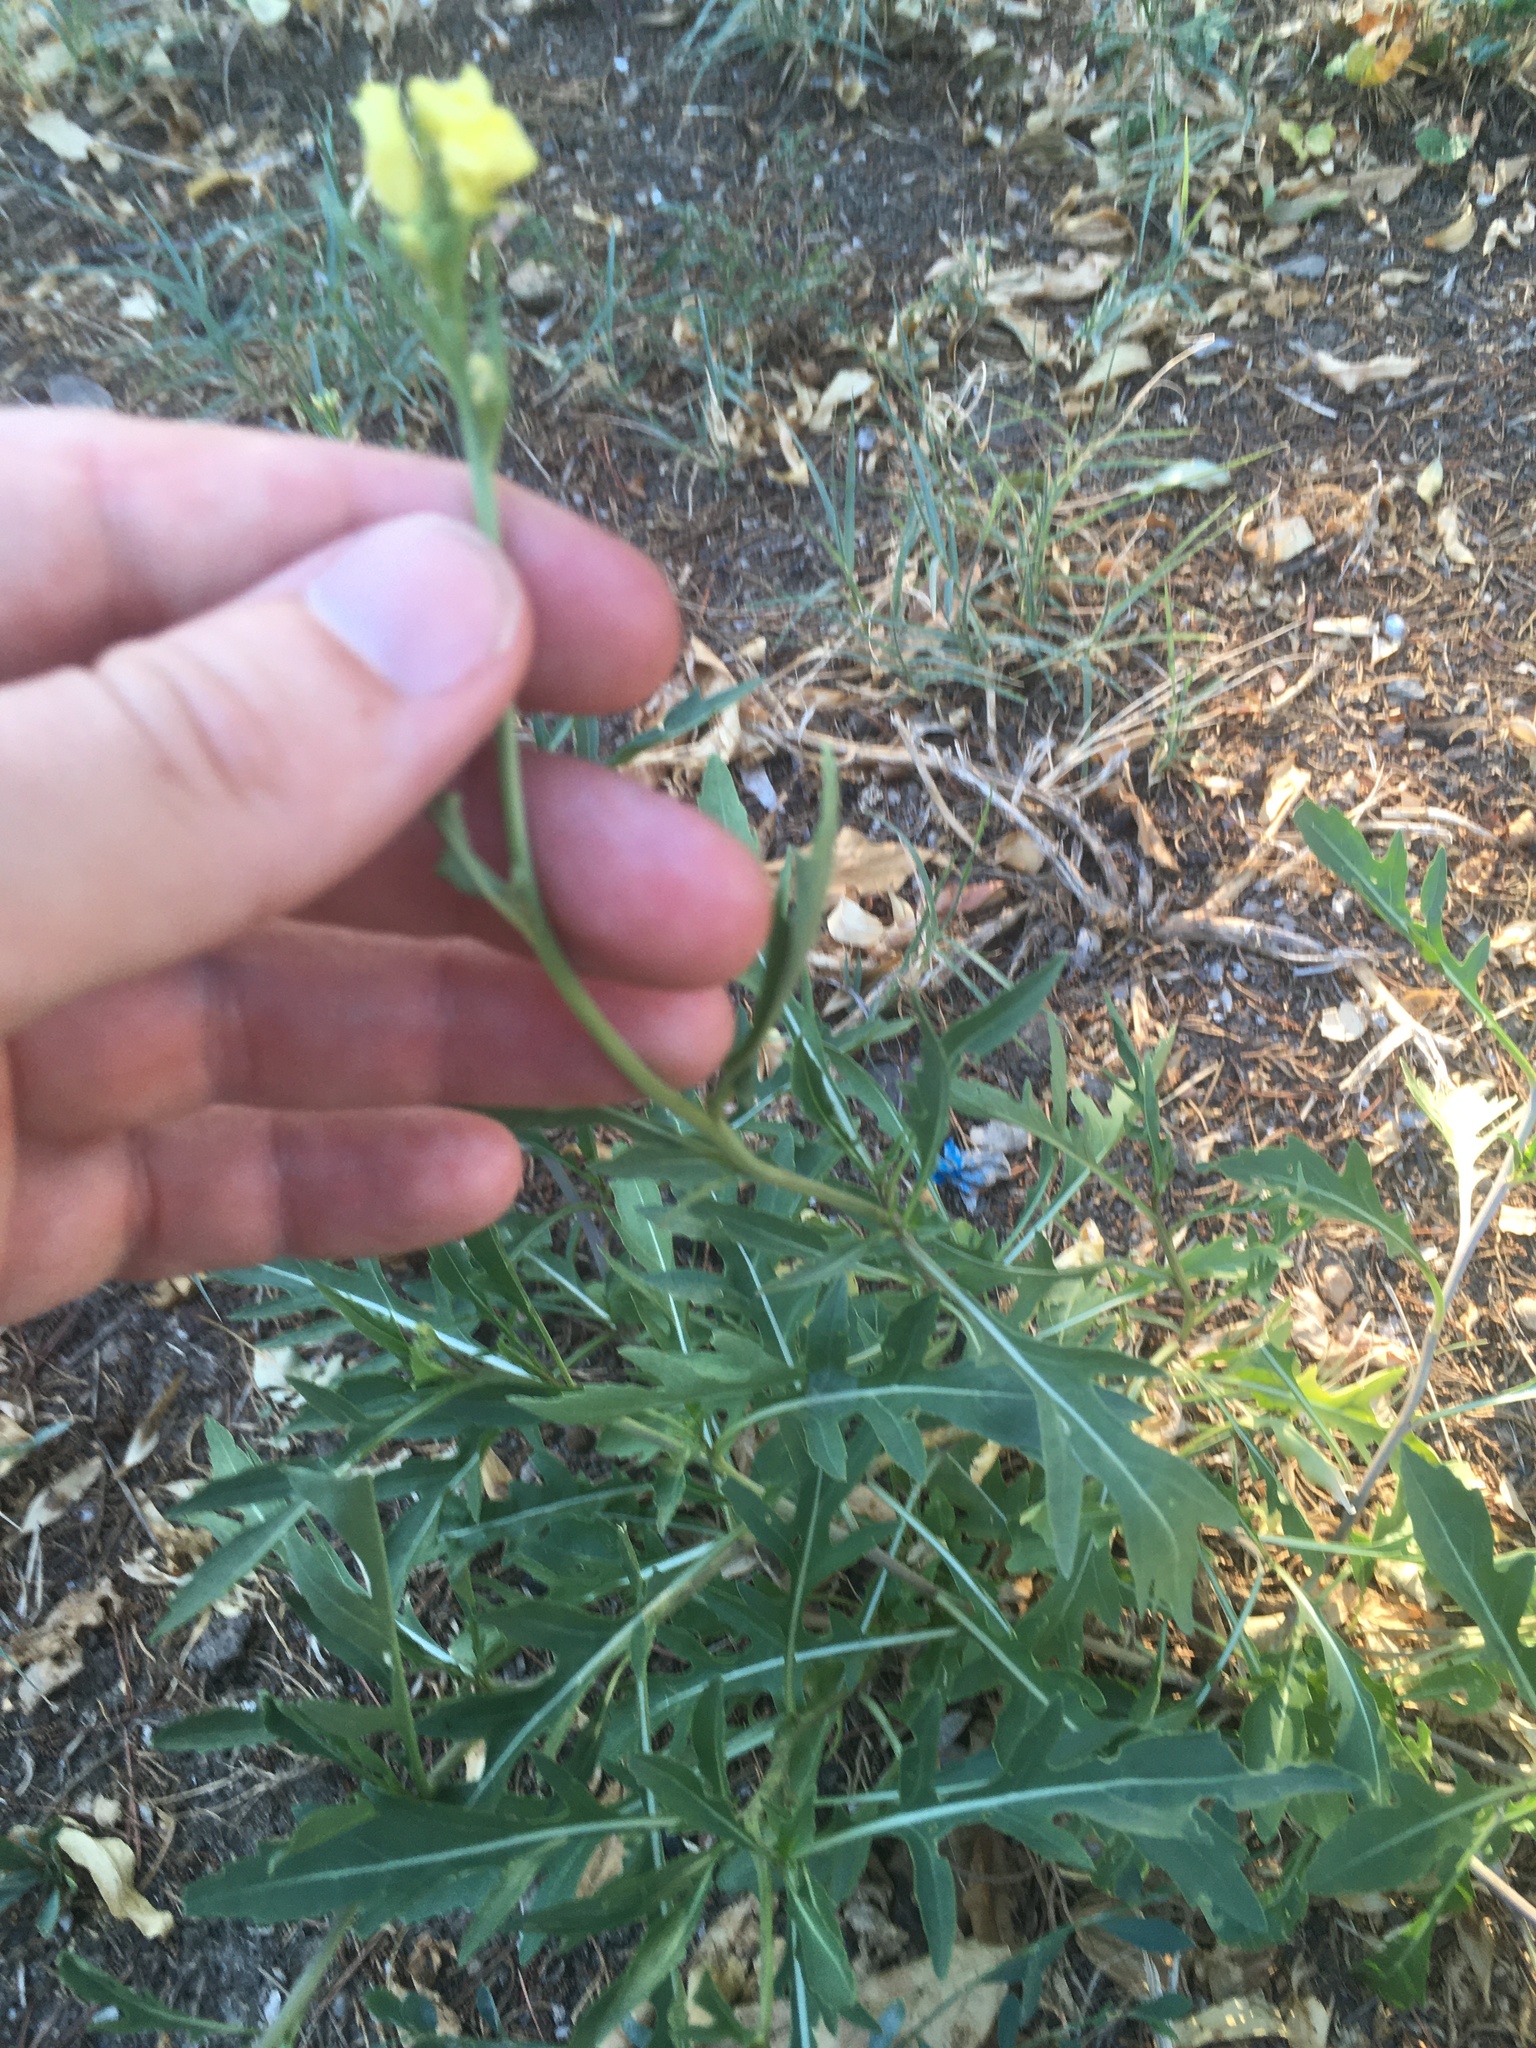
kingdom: Plantae
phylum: Tracheophyta
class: Magnoliopsida
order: Brassicales
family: Brassicaceae
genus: Diplotaxis
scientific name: Diplotaxis tenuifolia
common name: Perennial wall-rocket
